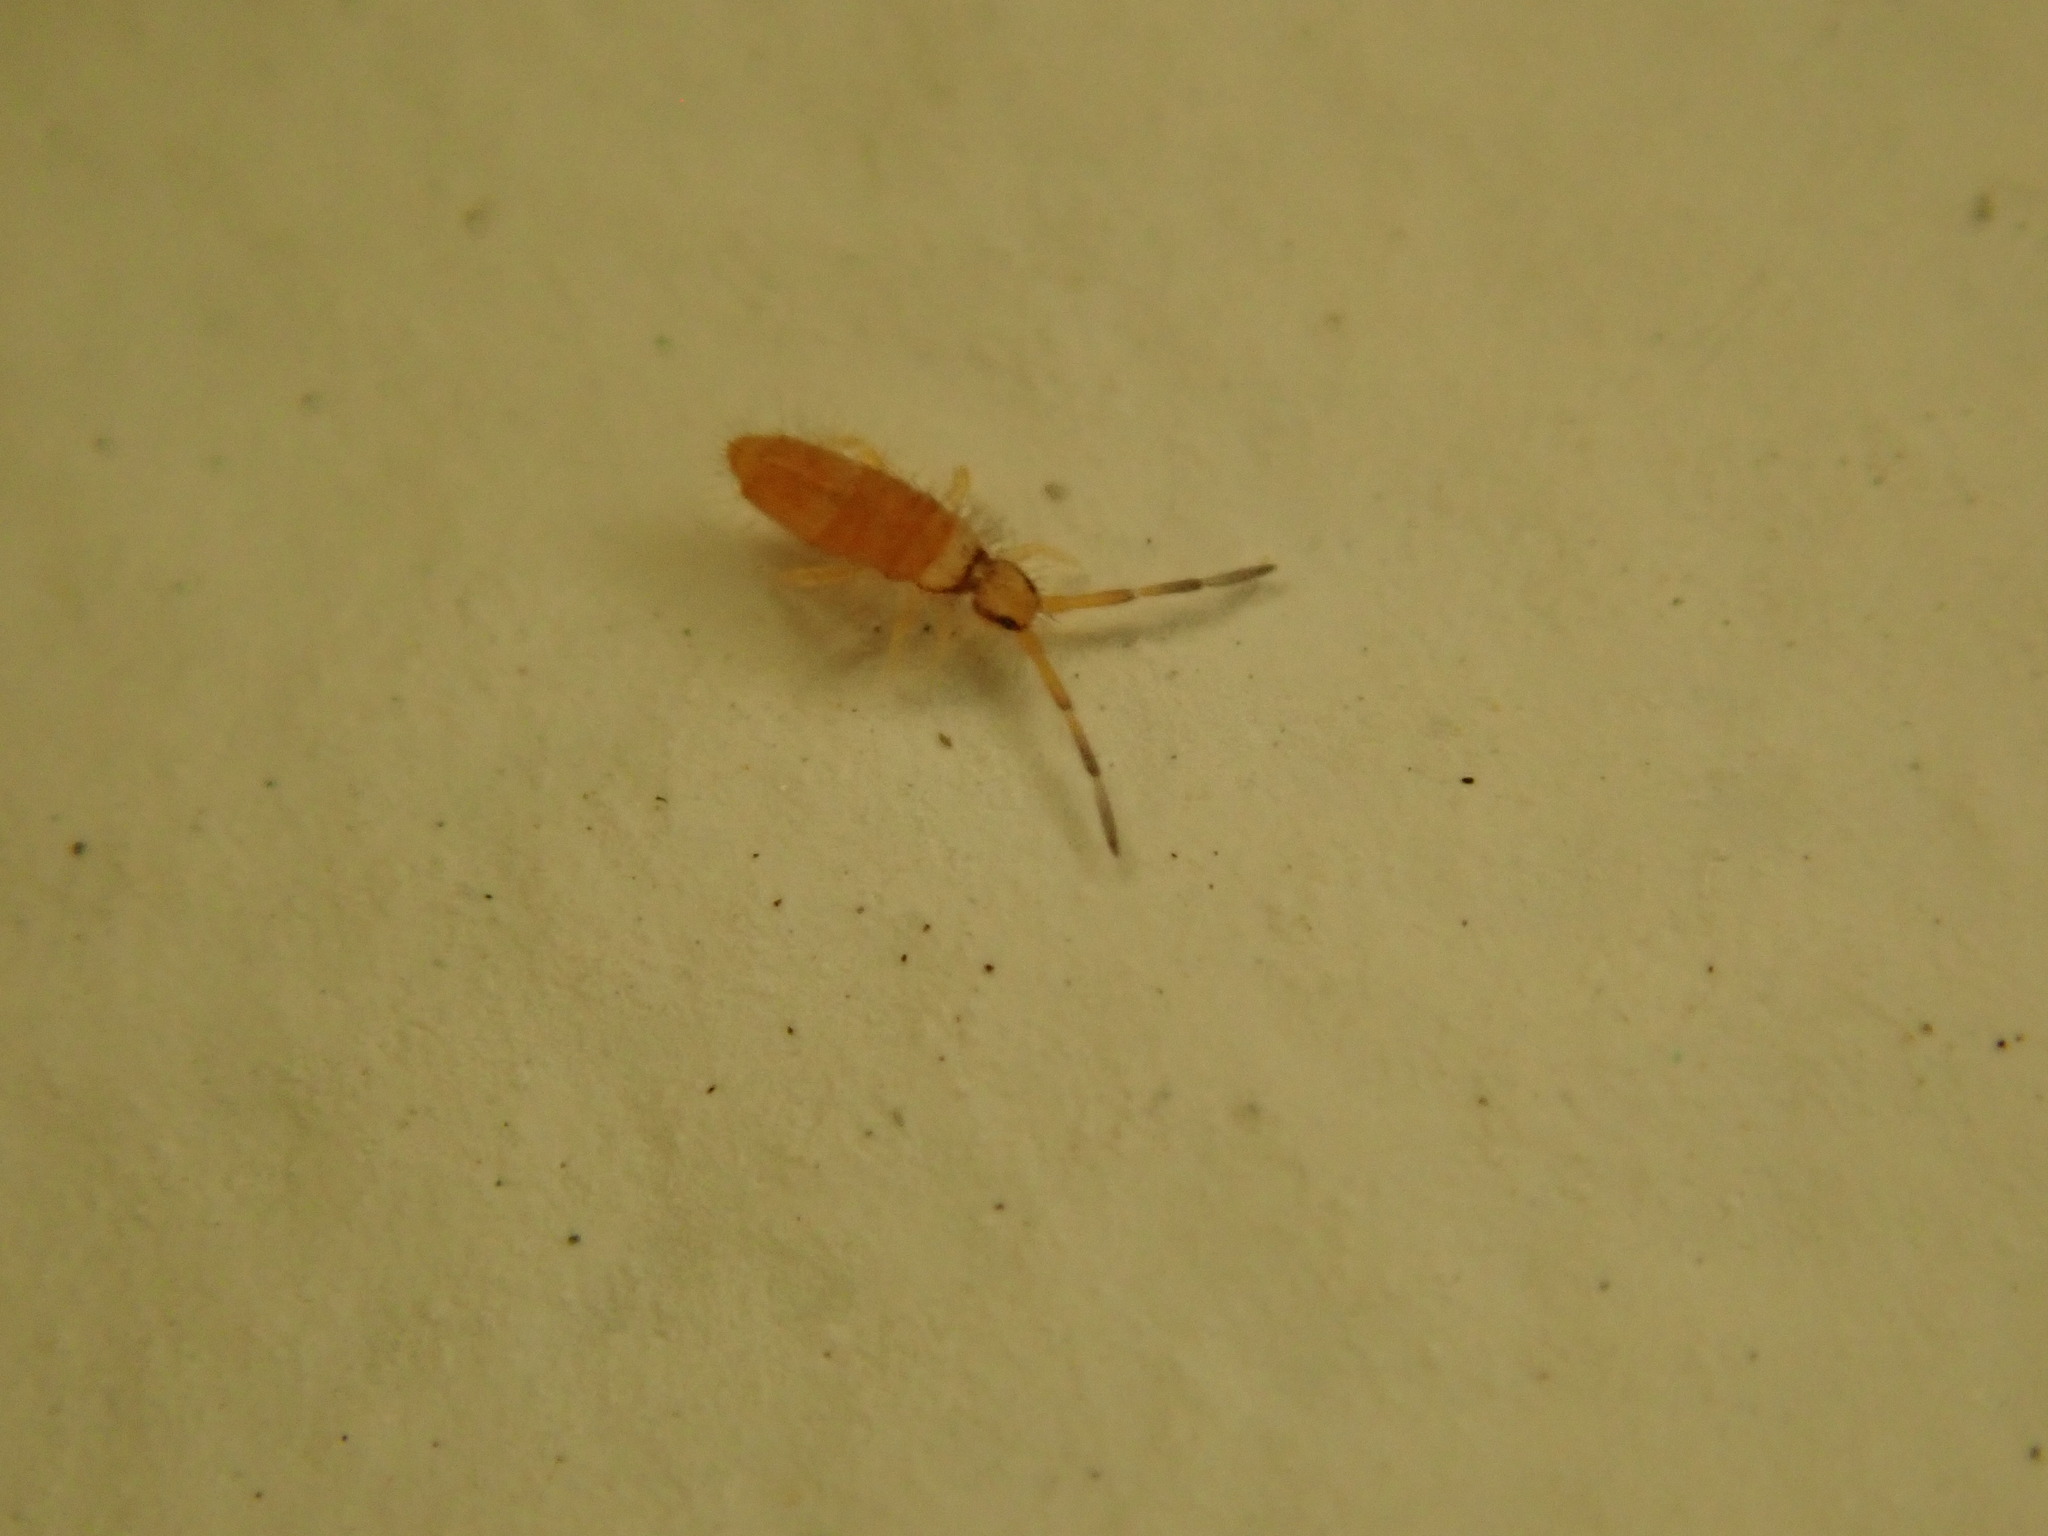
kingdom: Animalia
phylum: Arthropoda
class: Collembola
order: Entomobryomorpha
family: Entomobryidae
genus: Entomobrya
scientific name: Entomobrya atrocincta
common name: Springtail
